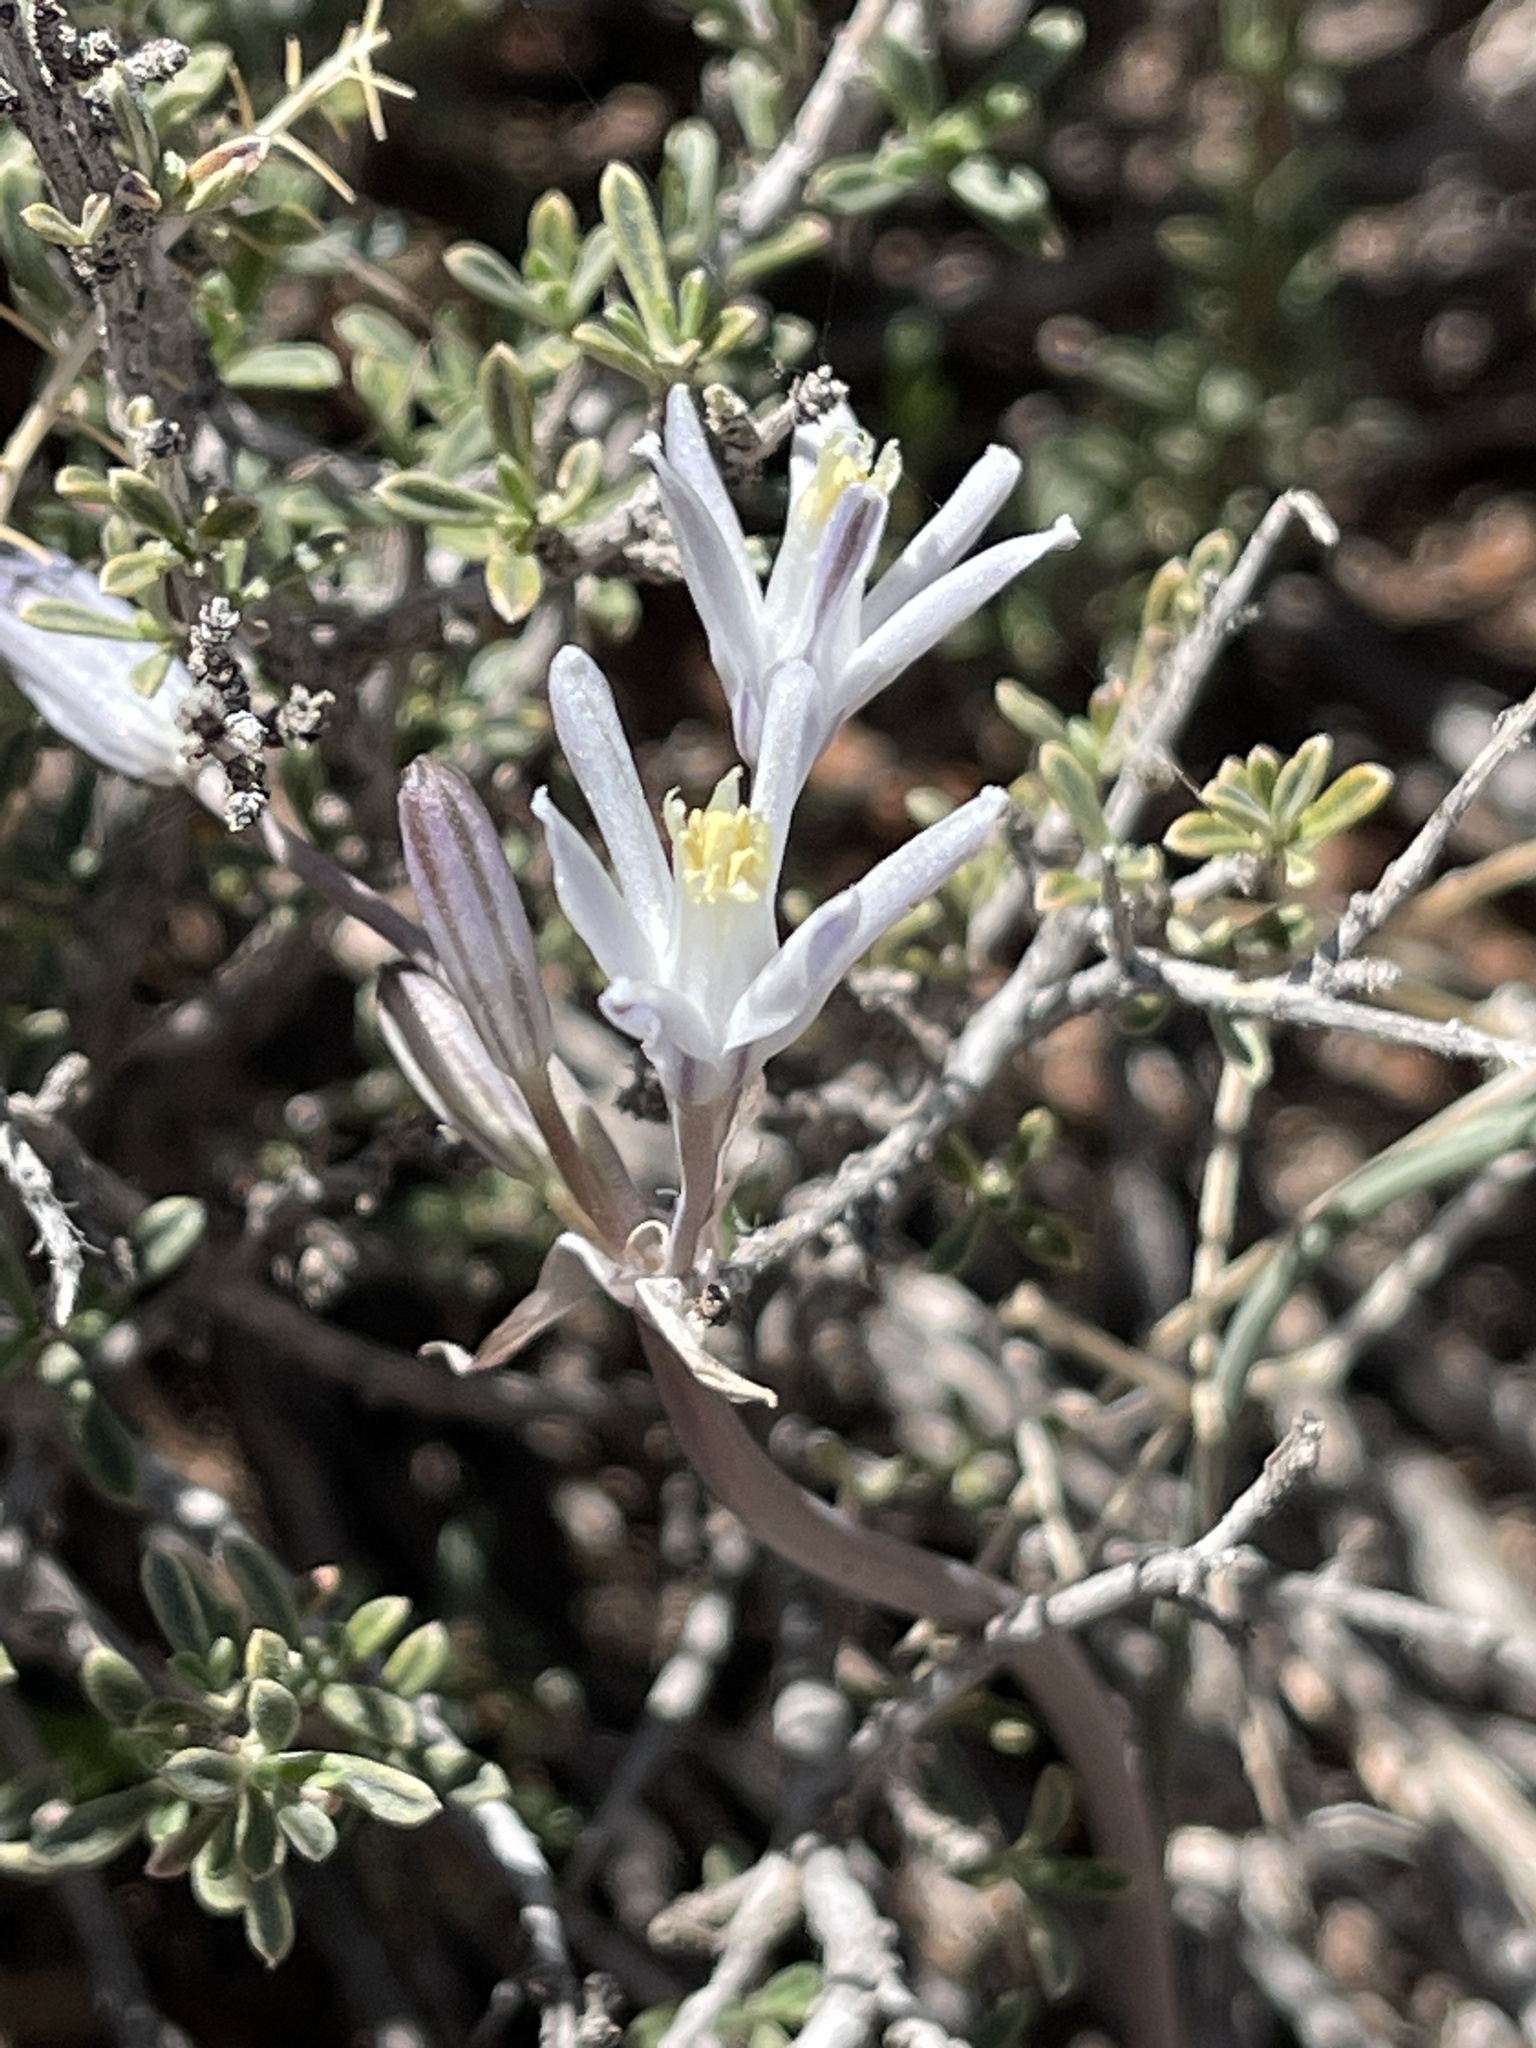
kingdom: Plantae
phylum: Tracheophyta
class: Liliopsida
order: Asparagales
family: Asparagaceae
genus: Androstephium
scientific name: Androstephium breviflorum
